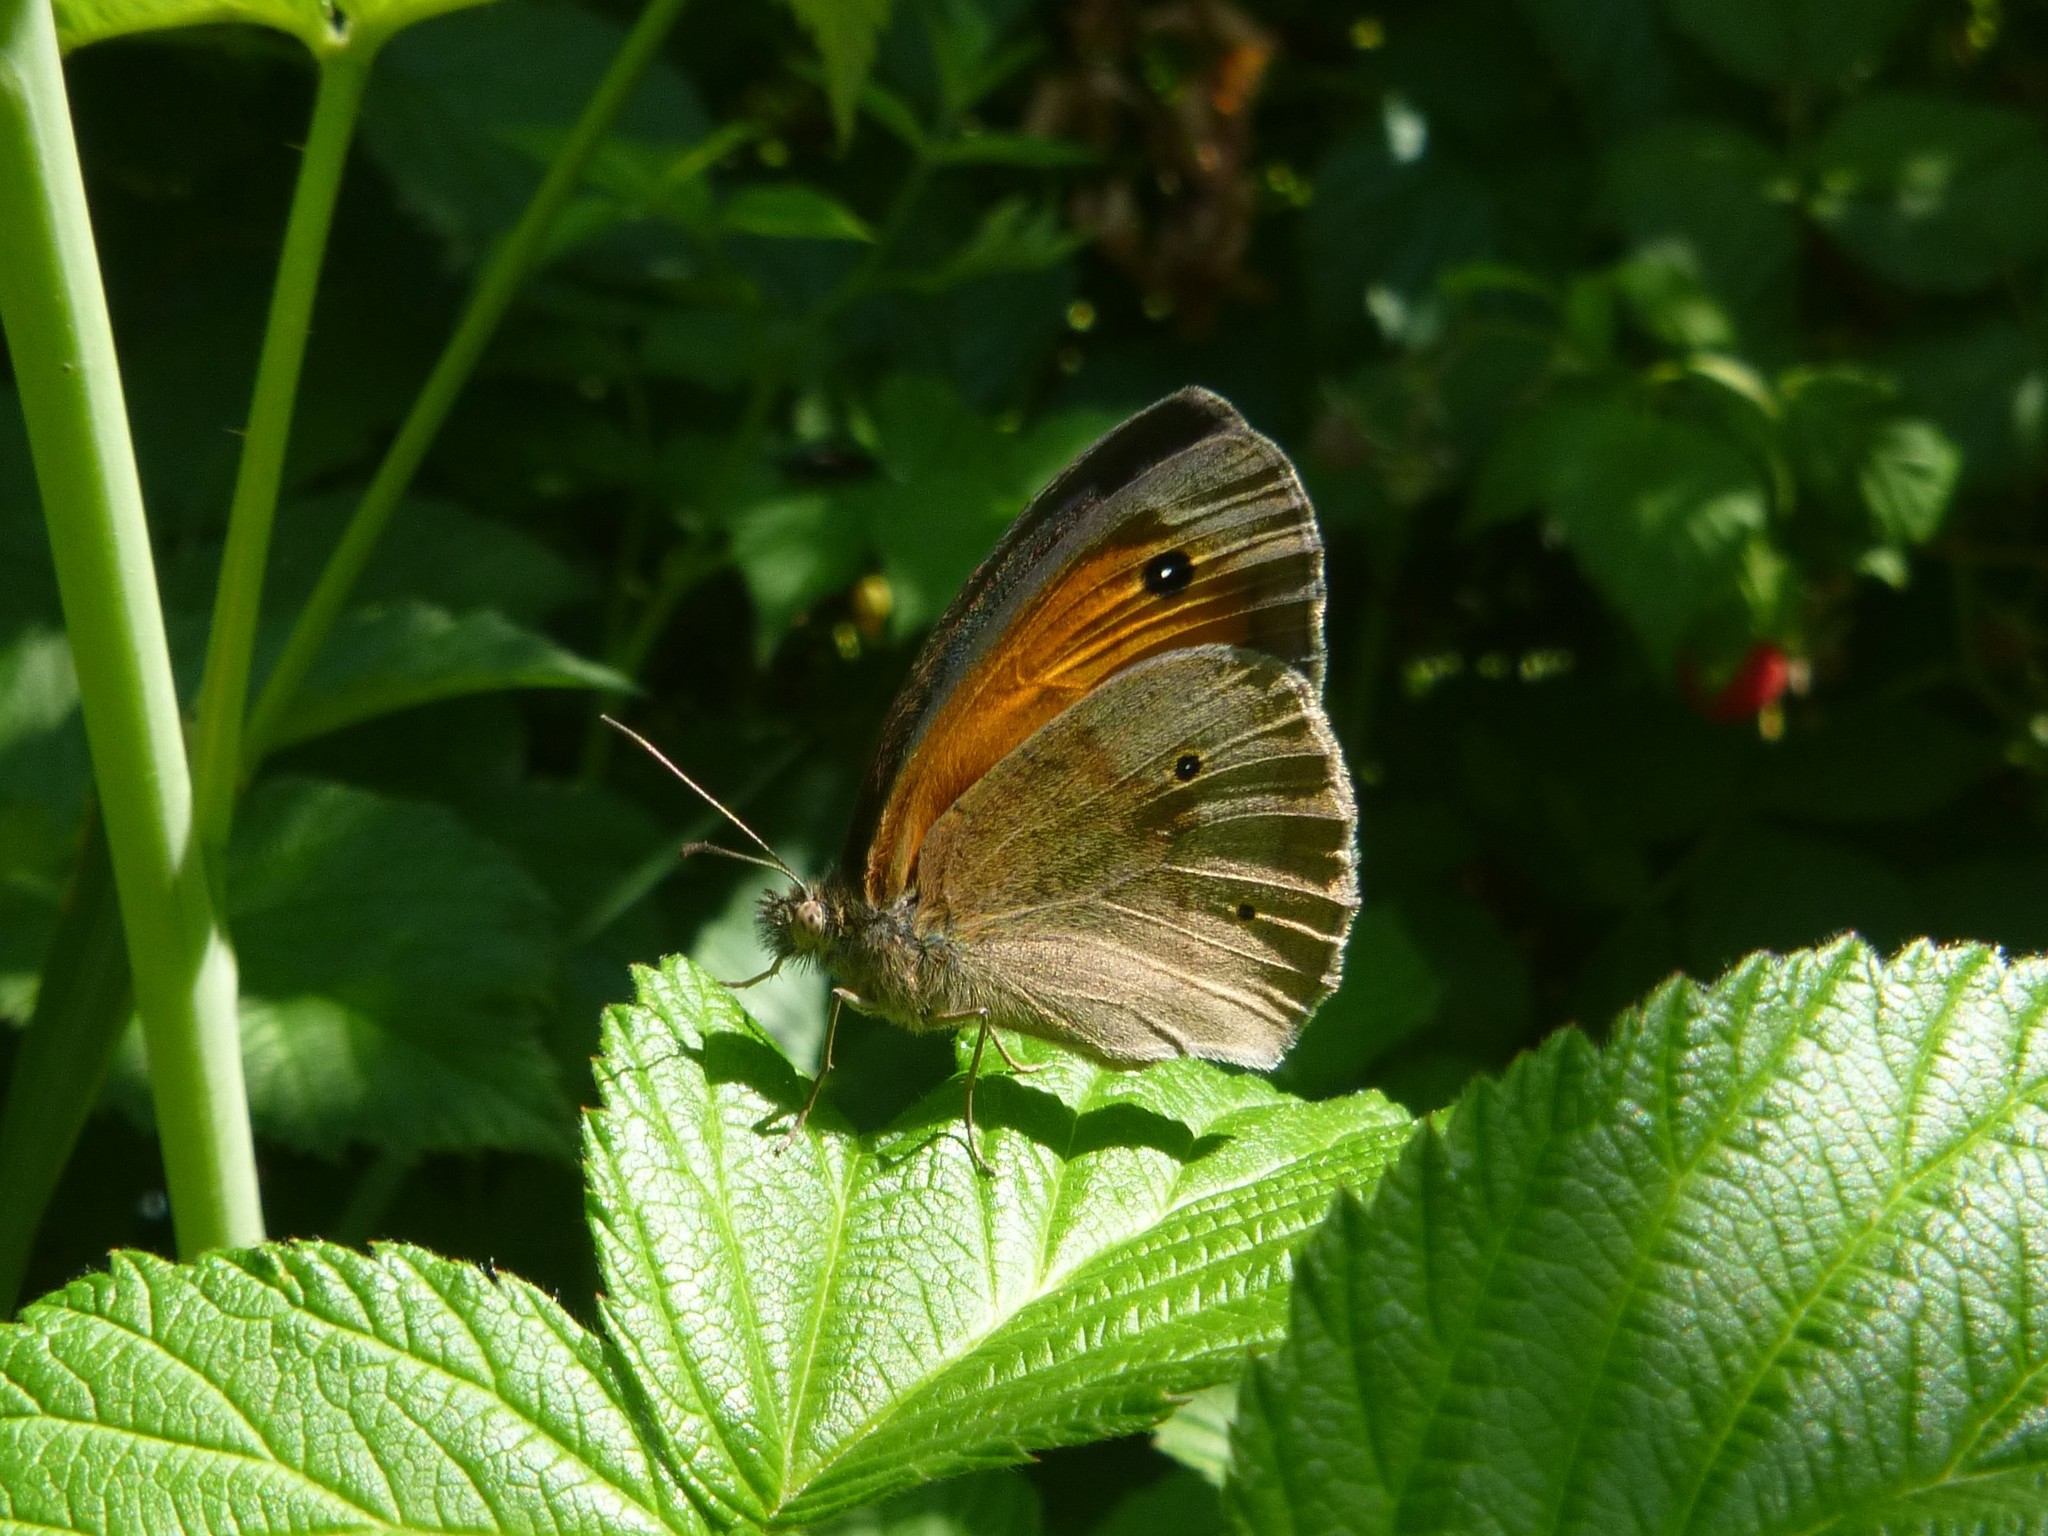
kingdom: Animalia
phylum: Arthropoda
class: Insecta
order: Lepidoptera
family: Nymphalidae
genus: Maniola
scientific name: Maniola jurtina
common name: Meadow brown
